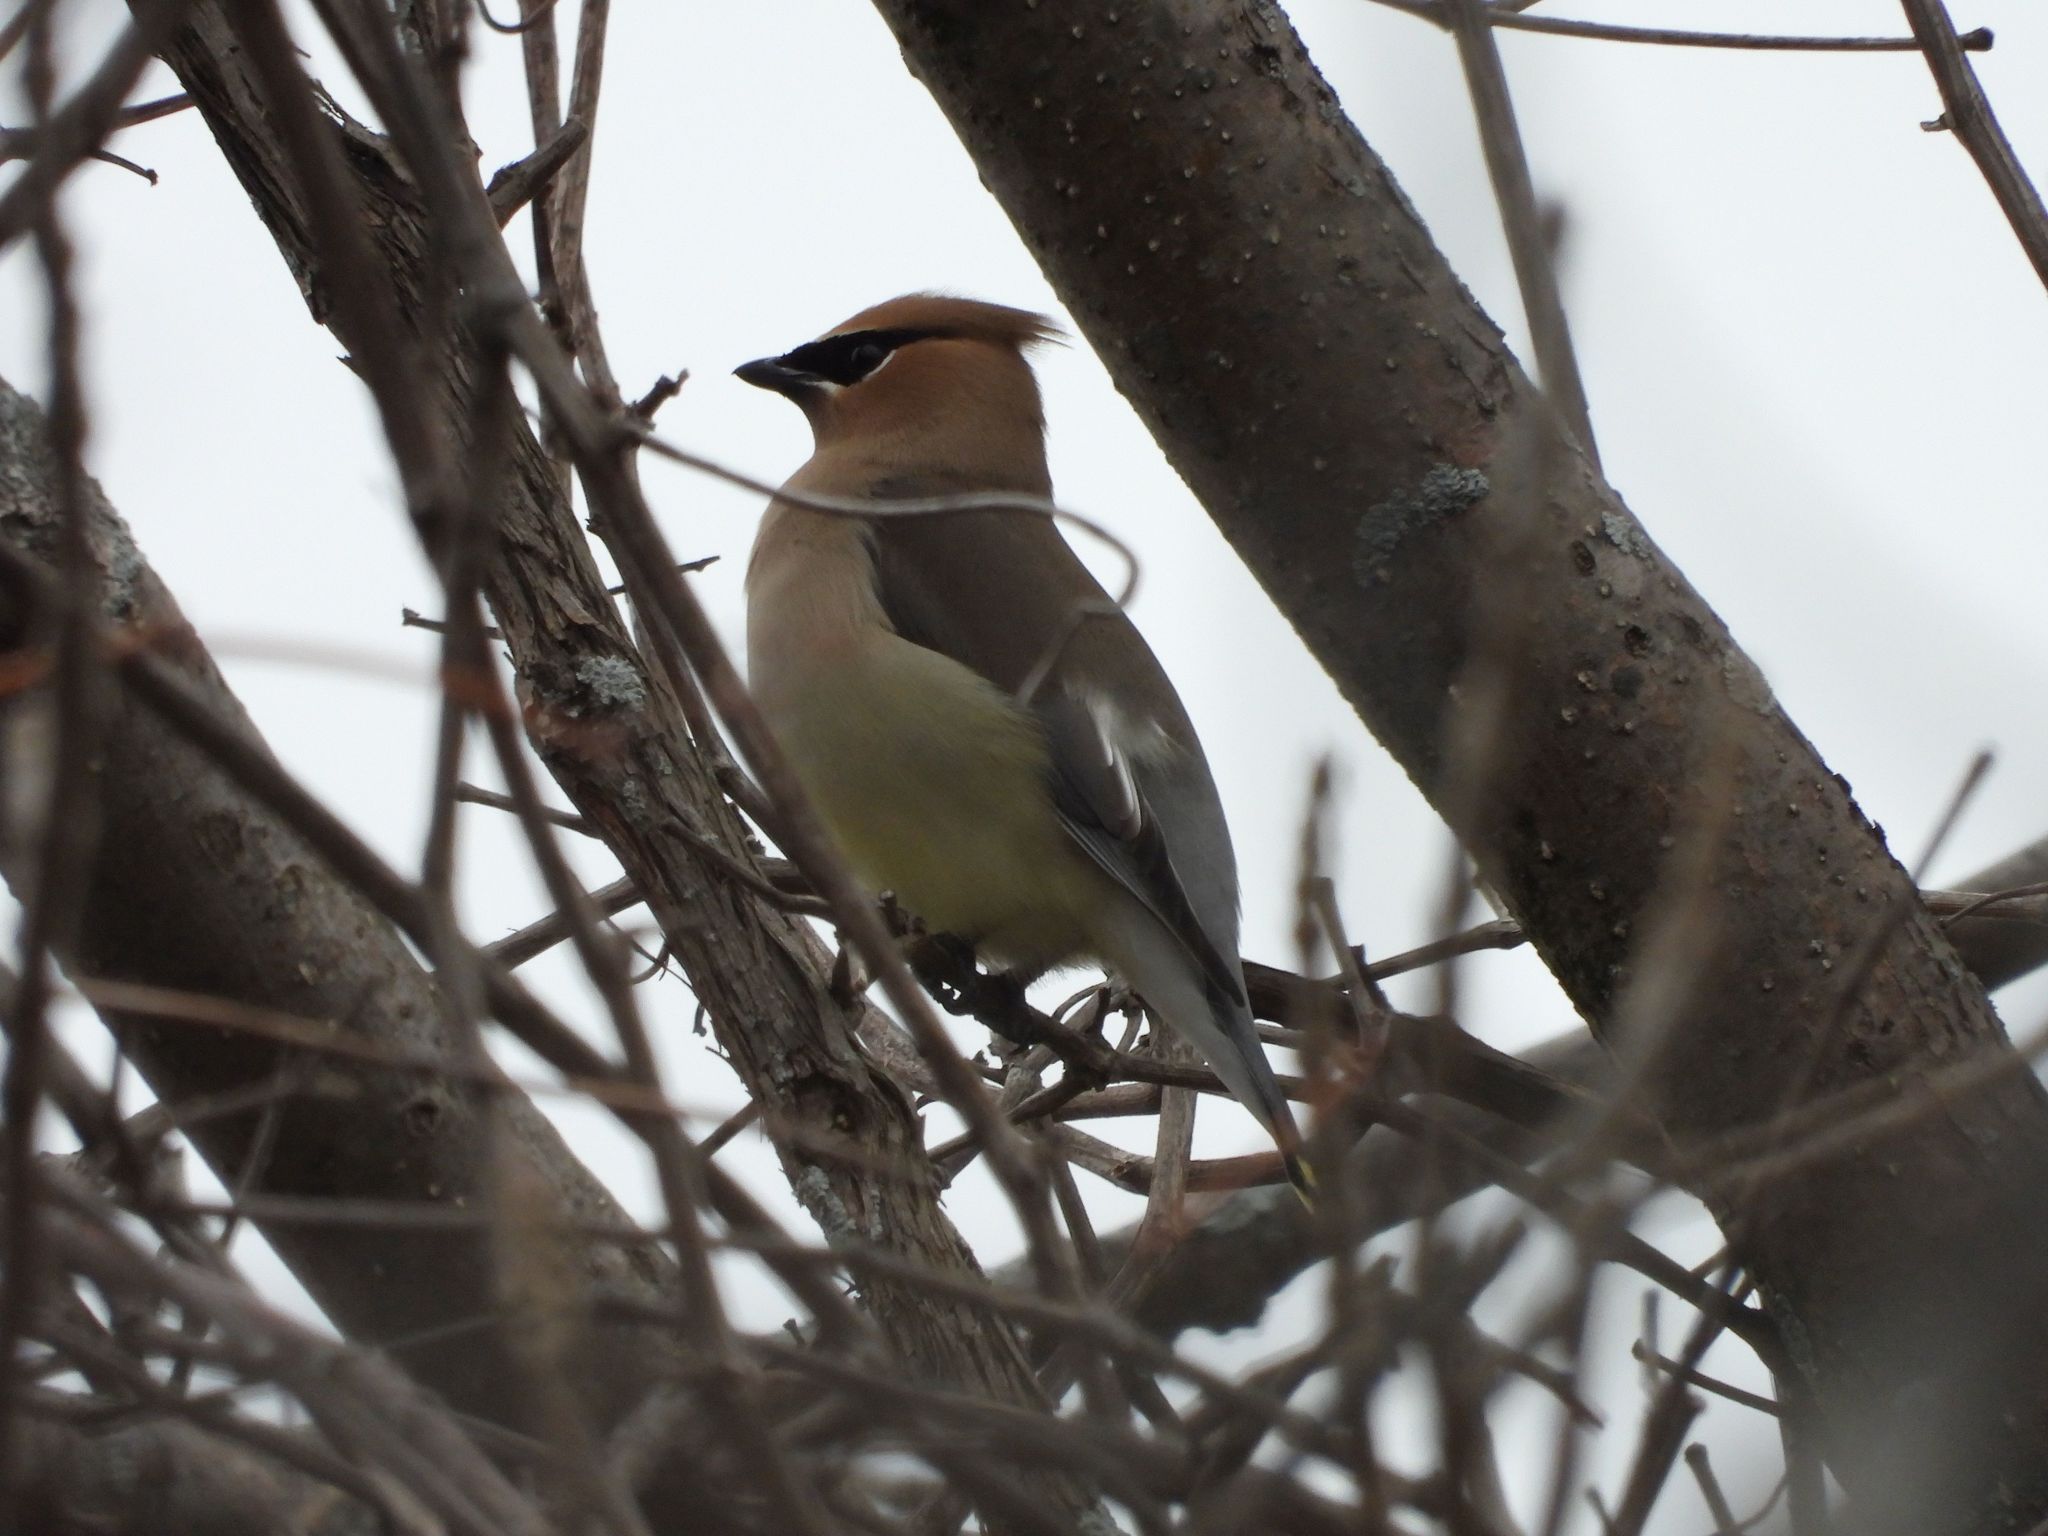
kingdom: Animalia
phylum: Chordata
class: Aves
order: Passeriformes
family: Bombycillidae
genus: Bombycilla
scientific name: Bombycilla cedrorum
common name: Cedar waxwing
